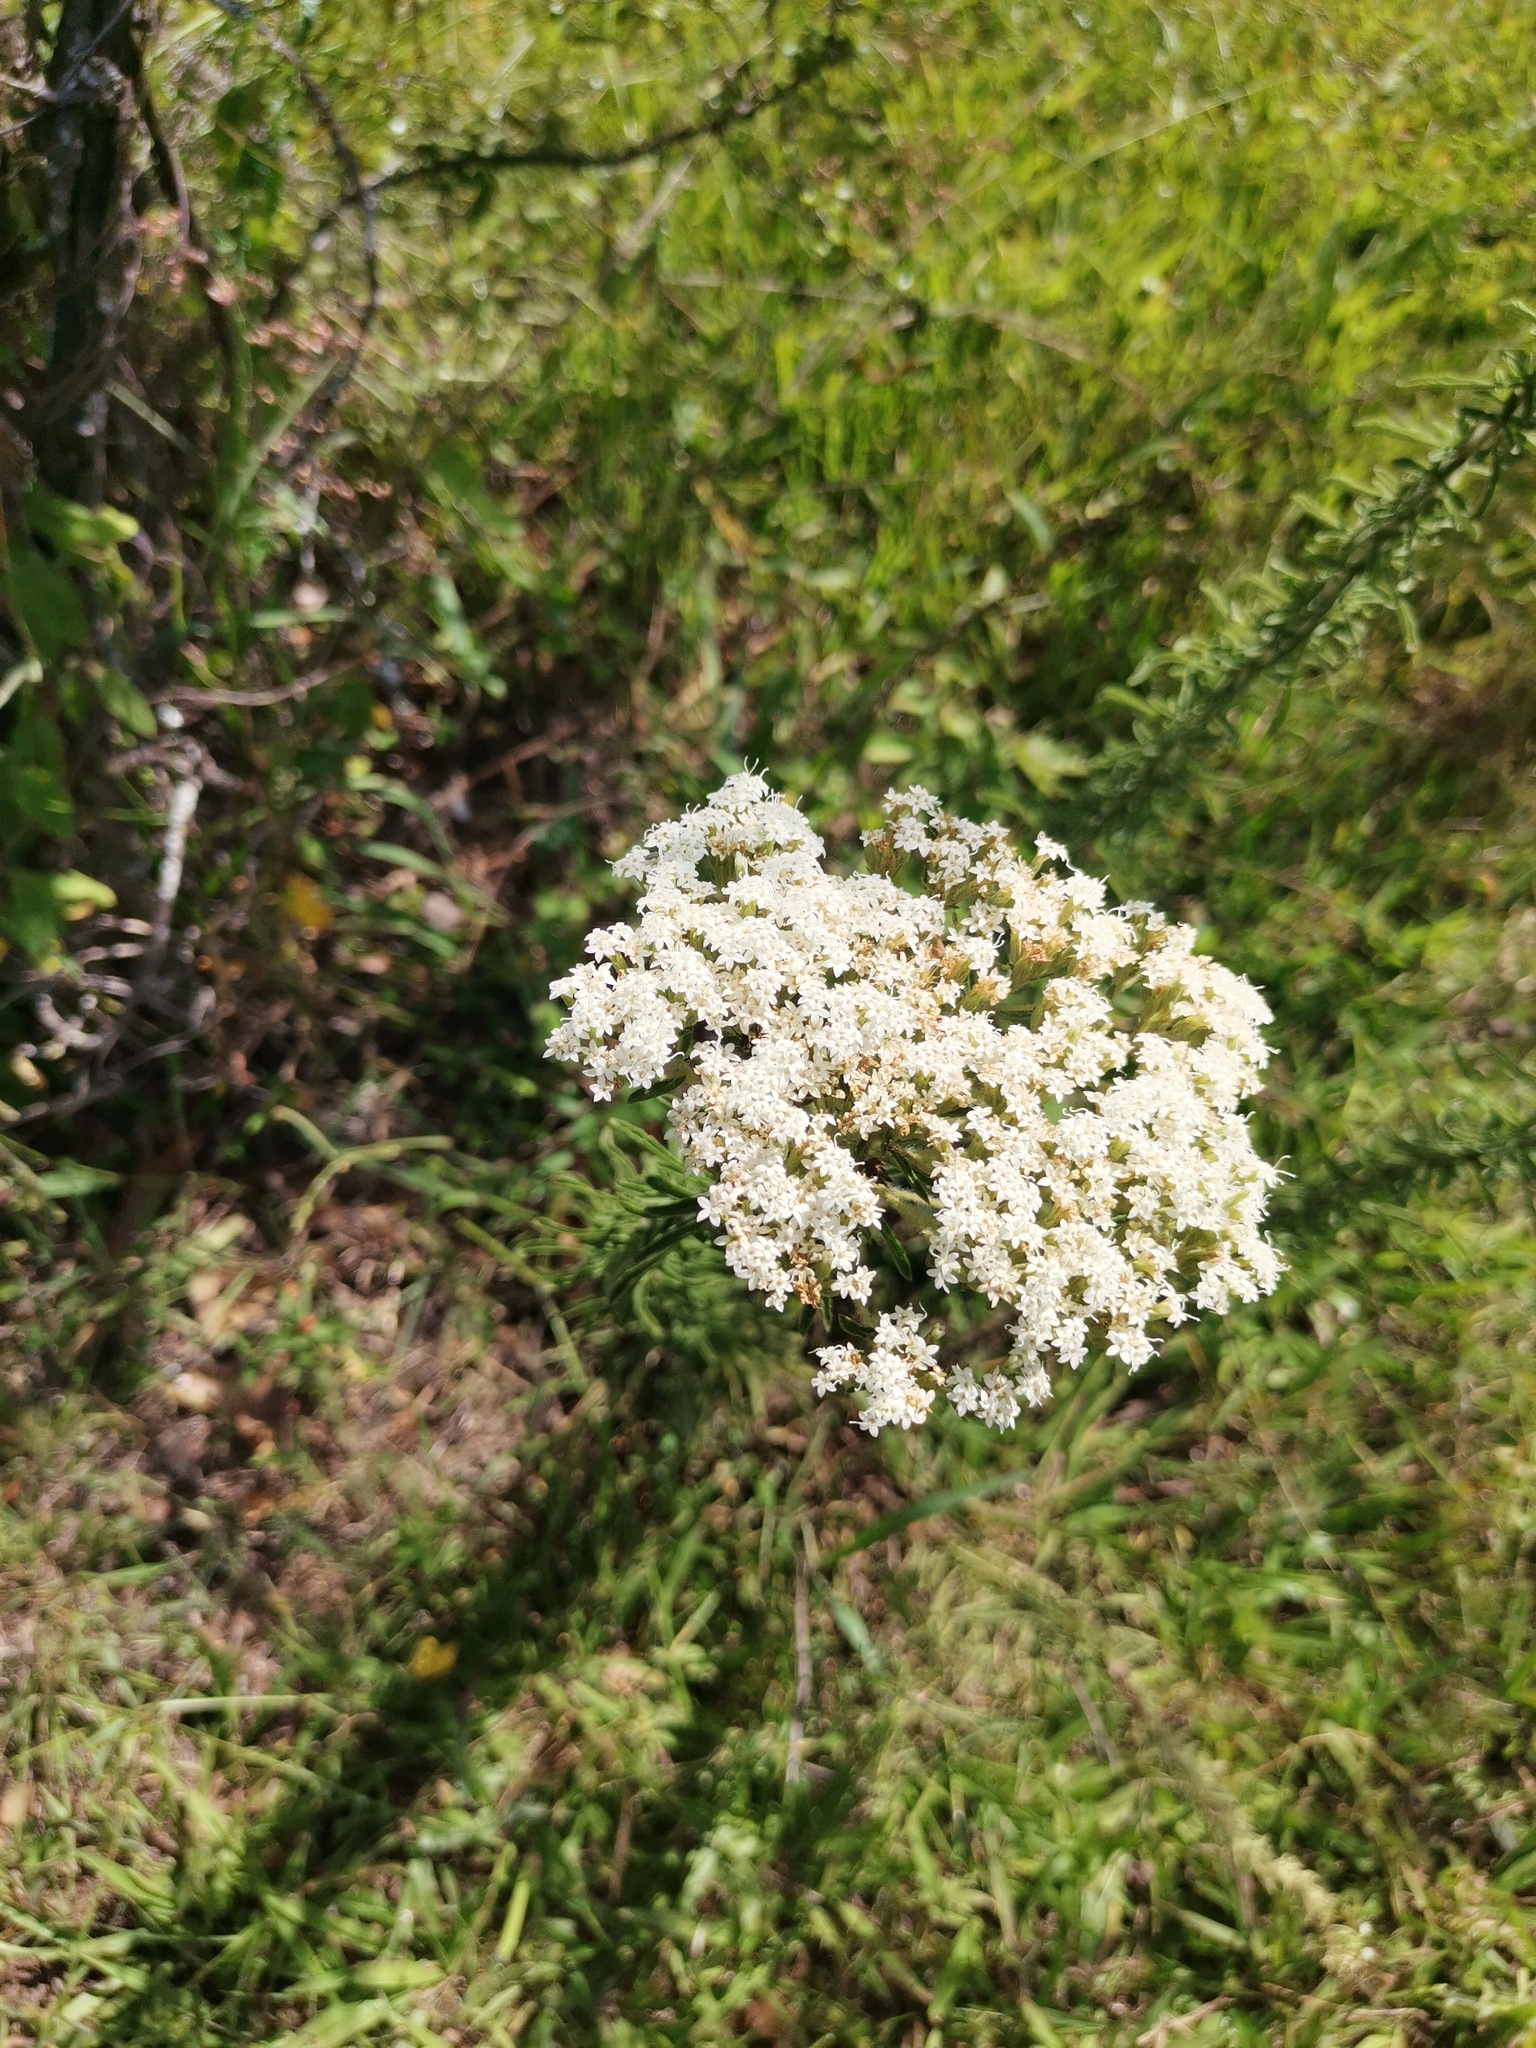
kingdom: Plantae
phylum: Tracheophyta
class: Magnoliopsida
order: Asterales
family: Asteraceae
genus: Stevia
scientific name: Stevia serrata
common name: Sawtooth candyleaf
